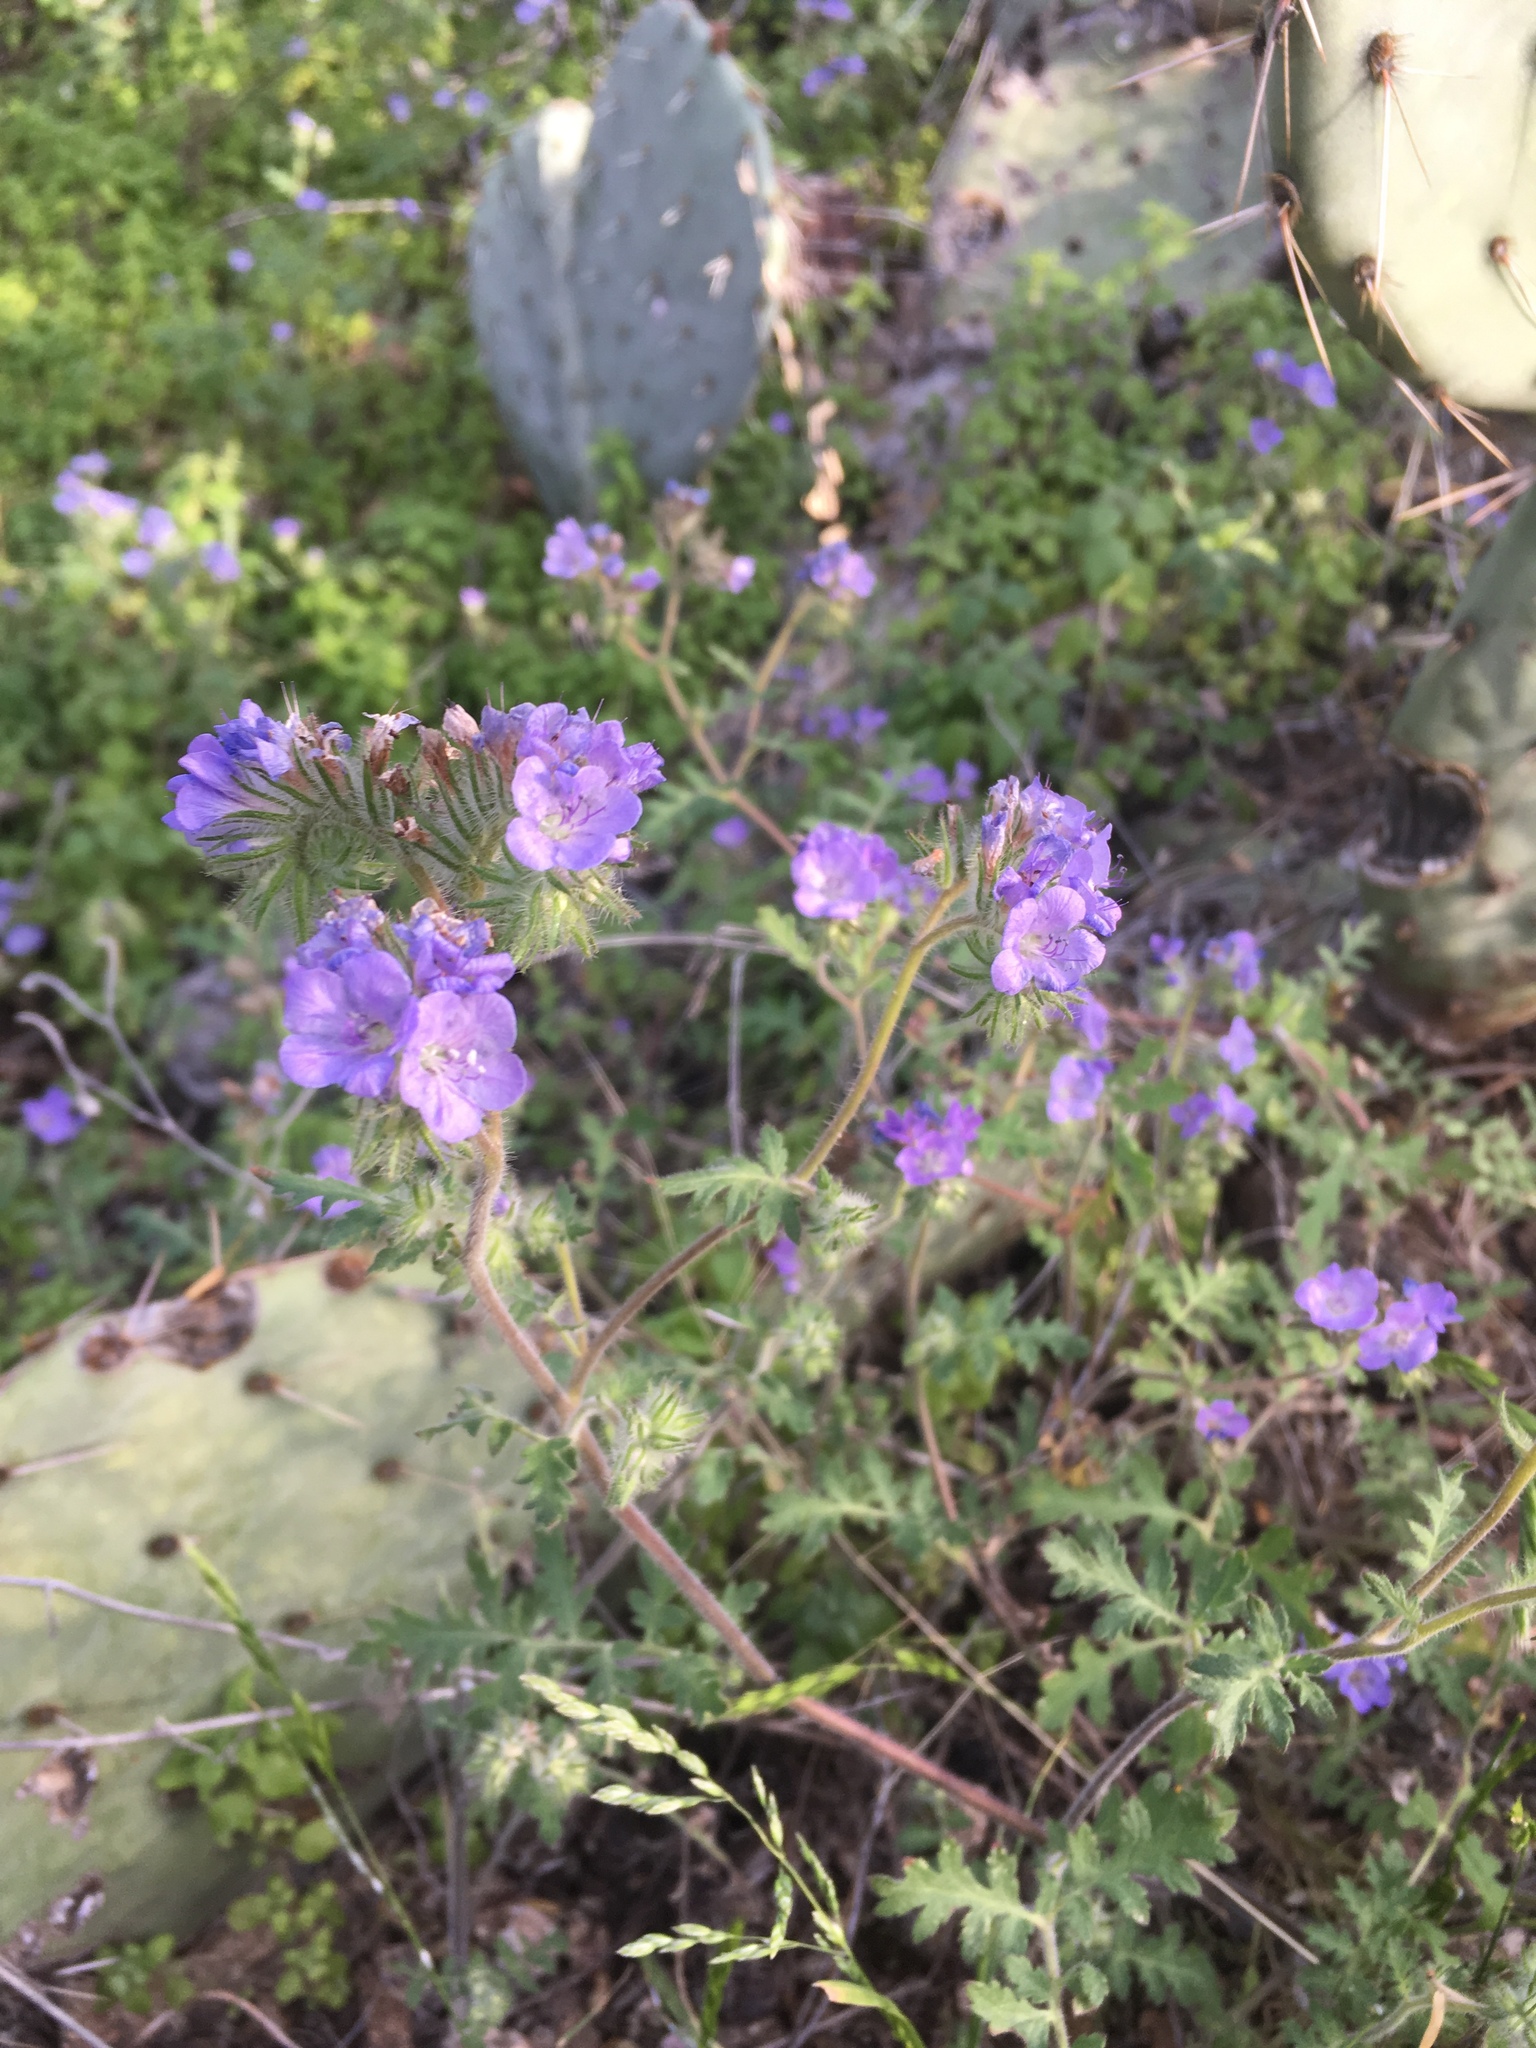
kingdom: Plantae
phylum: Tracheophyta
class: Magnoliopsida
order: Boraginales
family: Hydrophyllaceae
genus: Phacelia
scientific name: Phacelia distans
